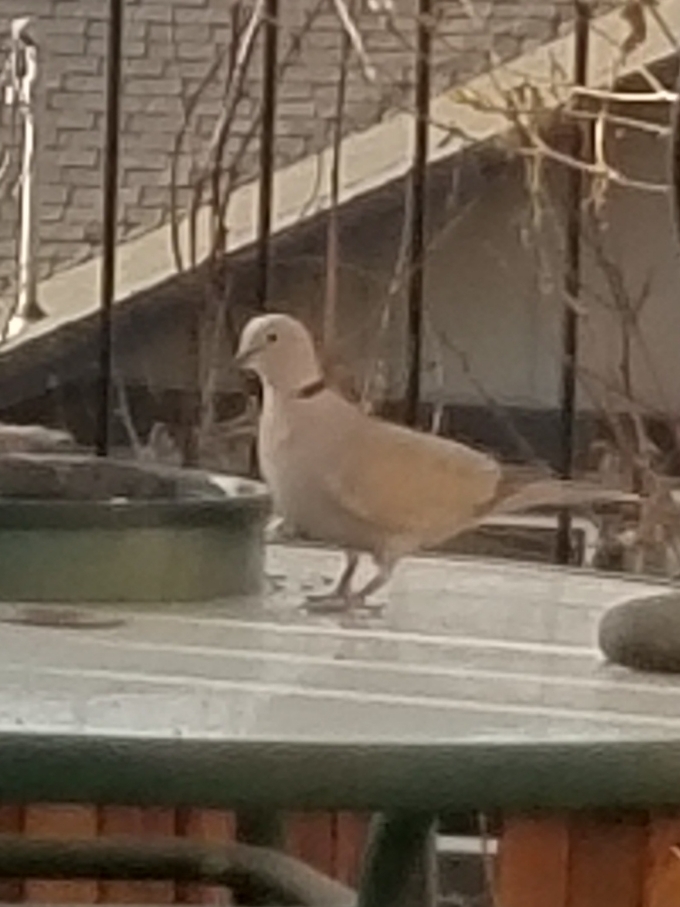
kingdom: Animalia
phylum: Chordata
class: Aves
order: Columbiformes
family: Columbidae
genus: Streptopelia
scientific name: Streptopelia decaocto
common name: Eurasian collared dove
